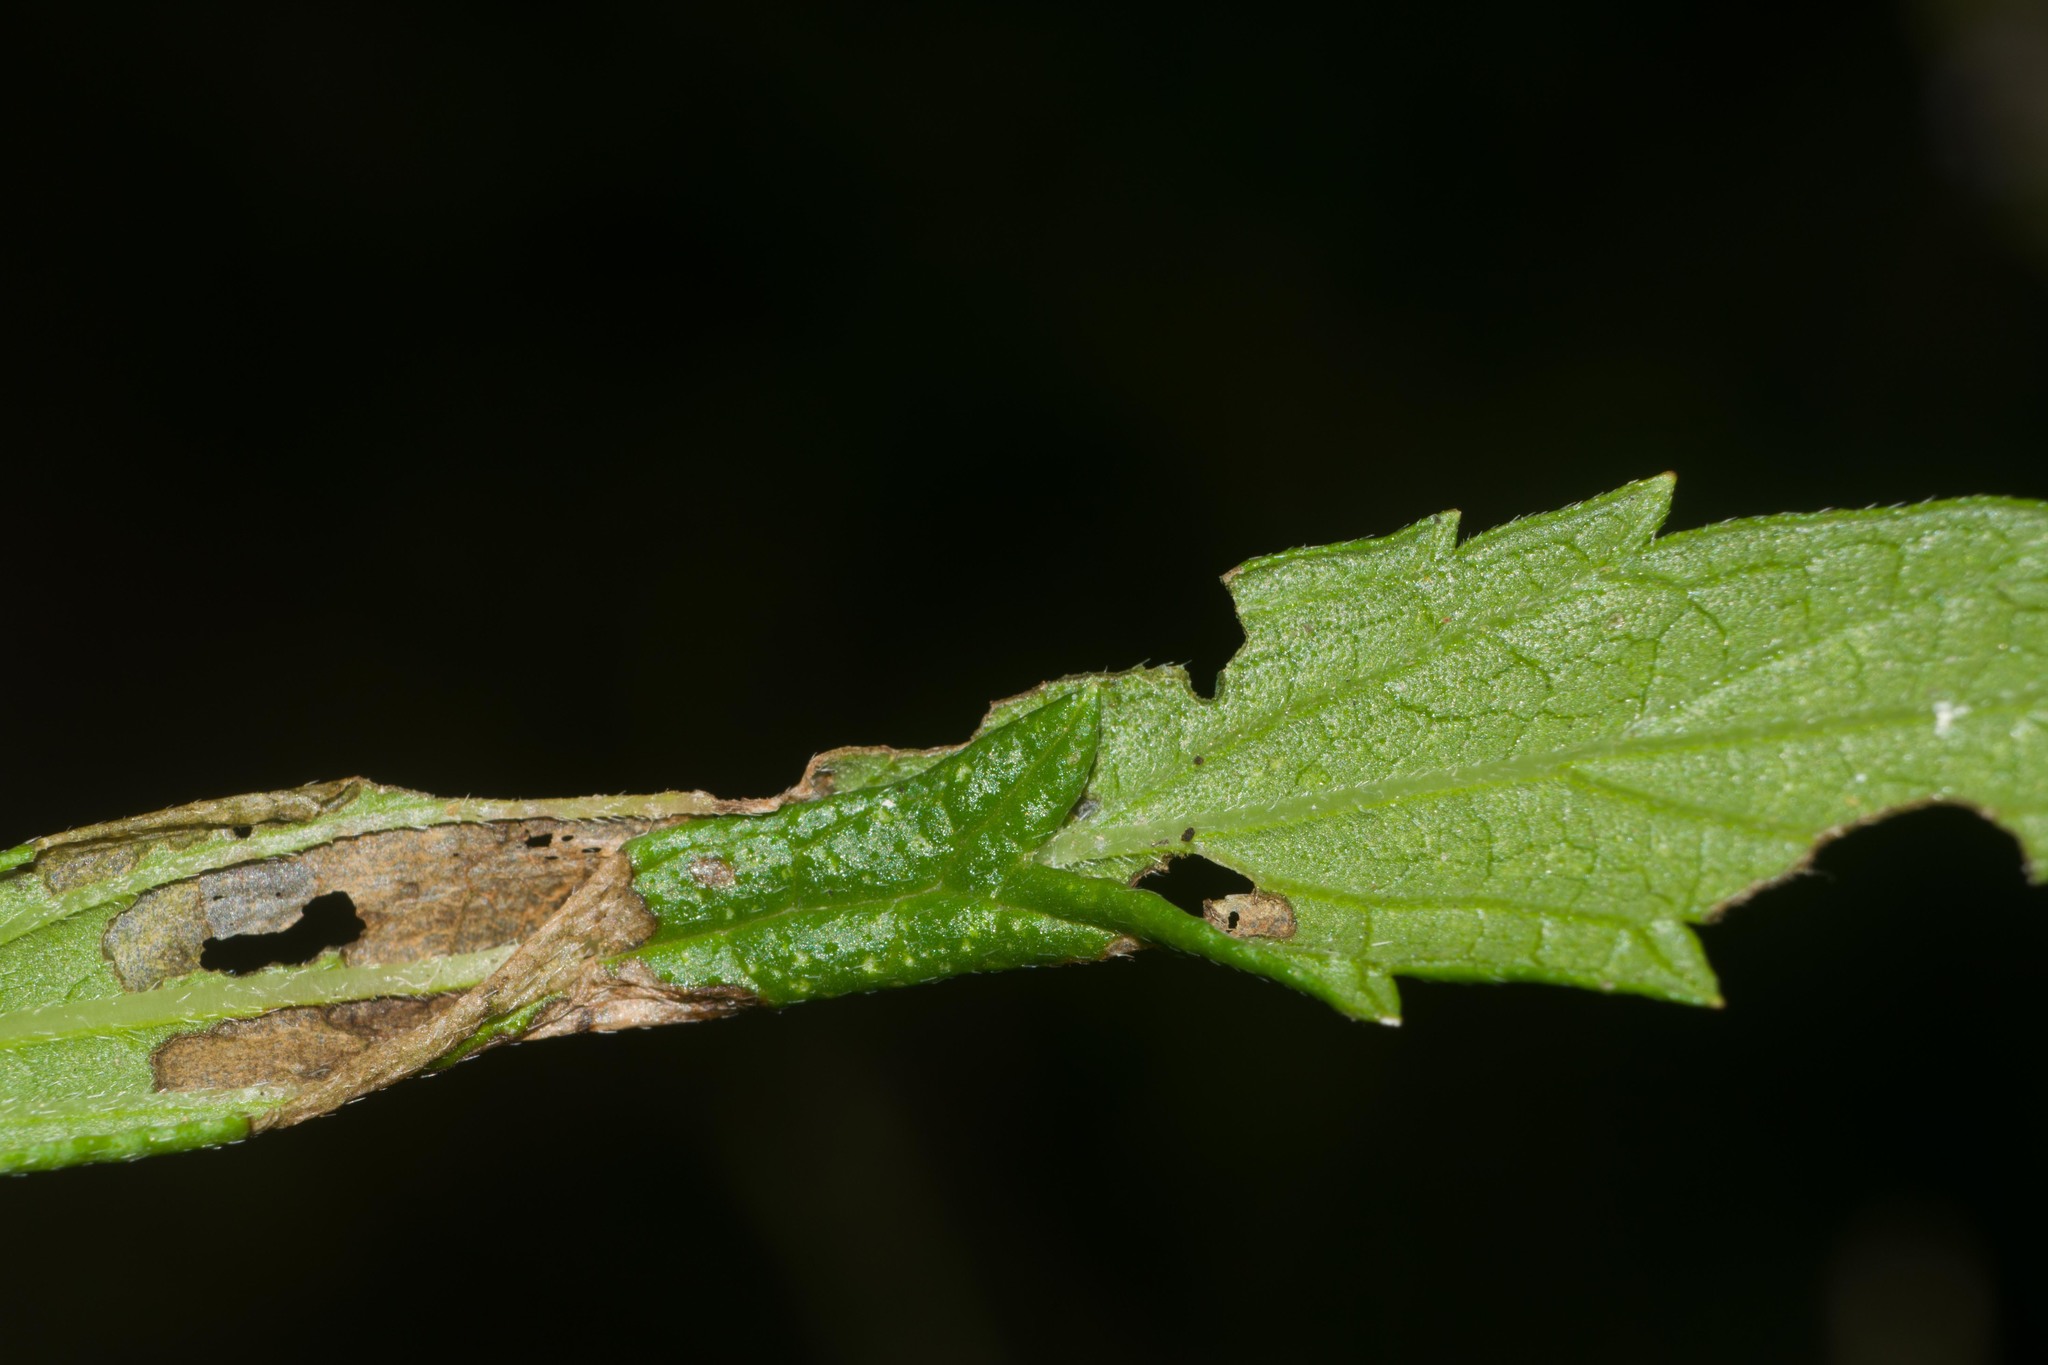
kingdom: Animalia
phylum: Arthropoda
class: Insecta
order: Lepidoptera
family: Tortricidae
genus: Amorbia
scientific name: Amorbia emigratella
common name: Mexican leafroller
